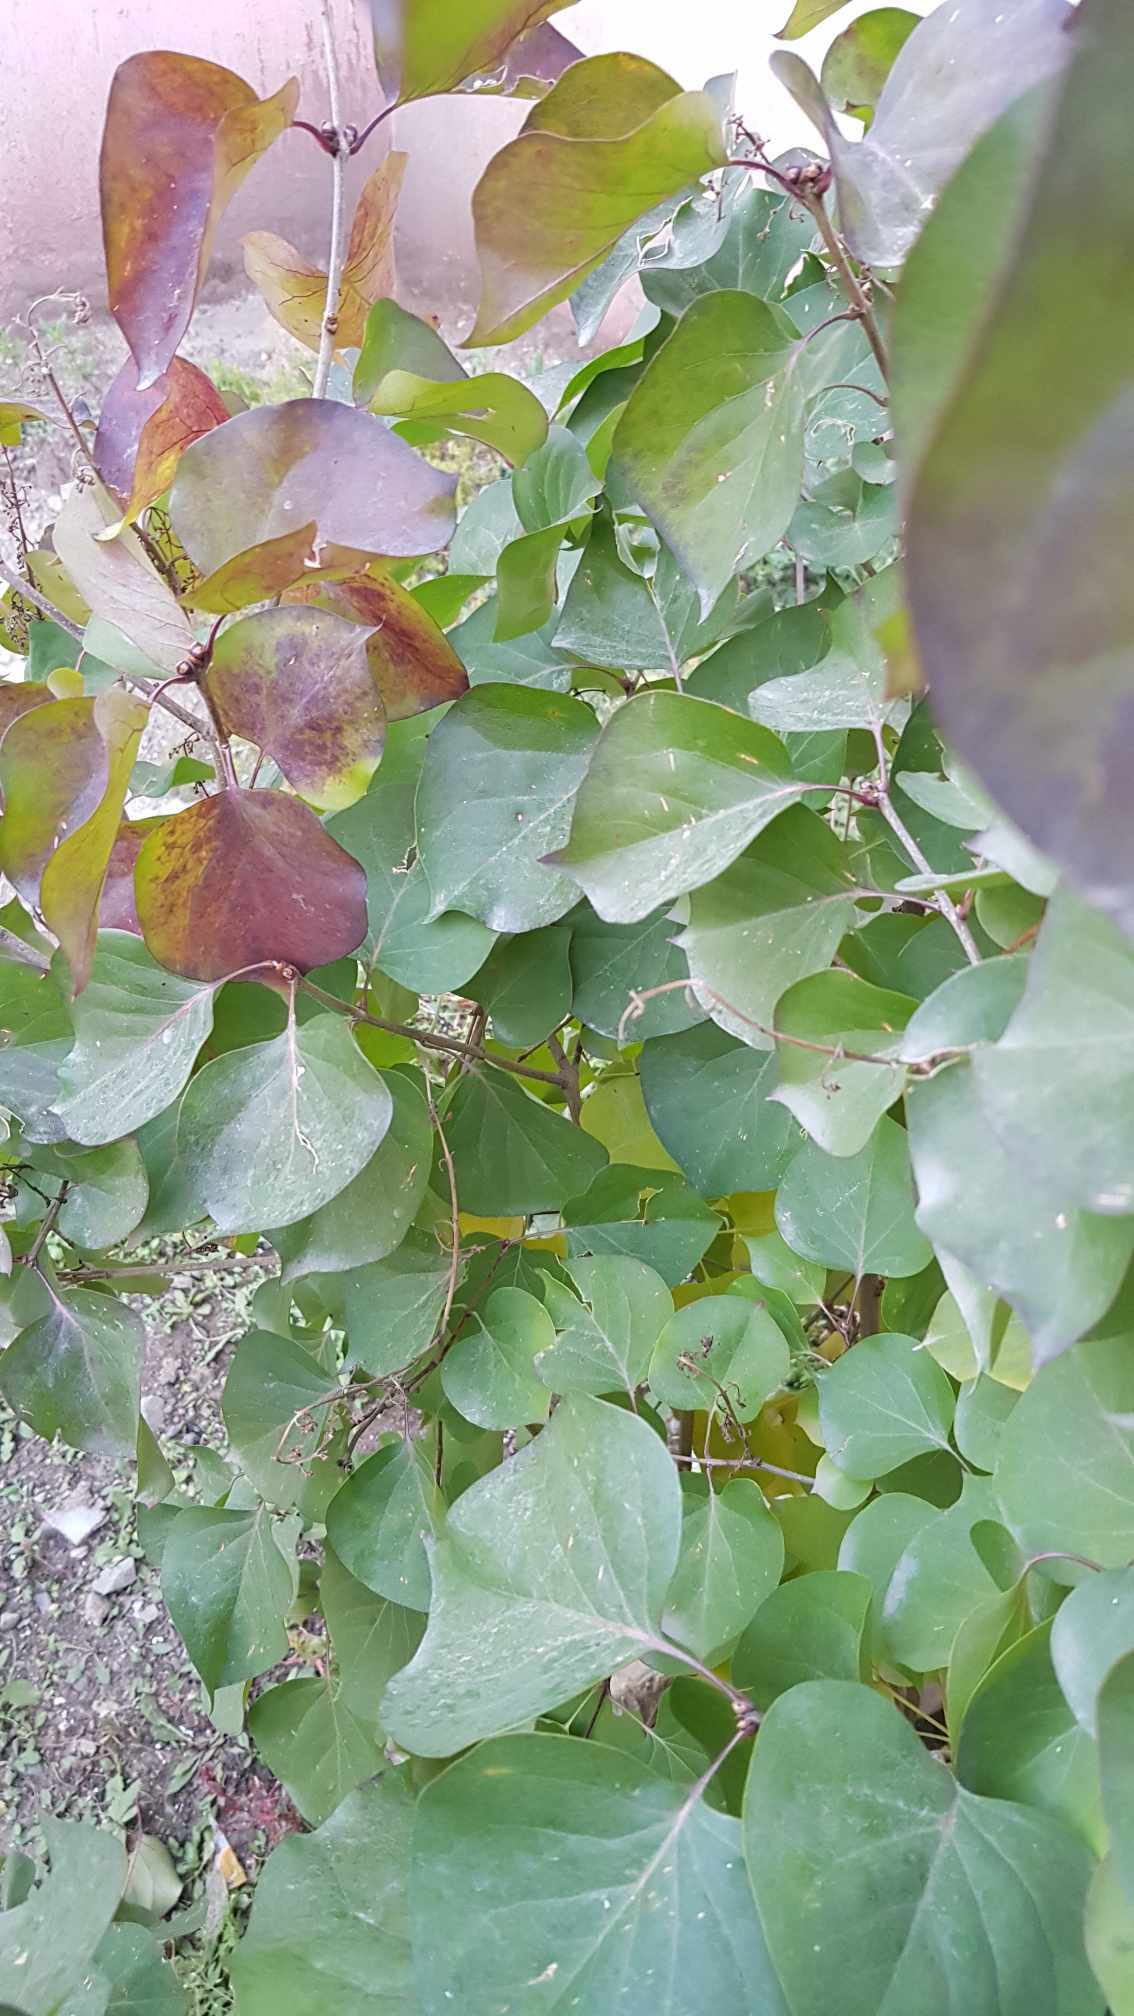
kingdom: Plantae
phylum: Tracheophyta
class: Magnoliopsida
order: Rosales
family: Rosaceae
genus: Prunus
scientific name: Prunus armeniaca
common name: Apricot
